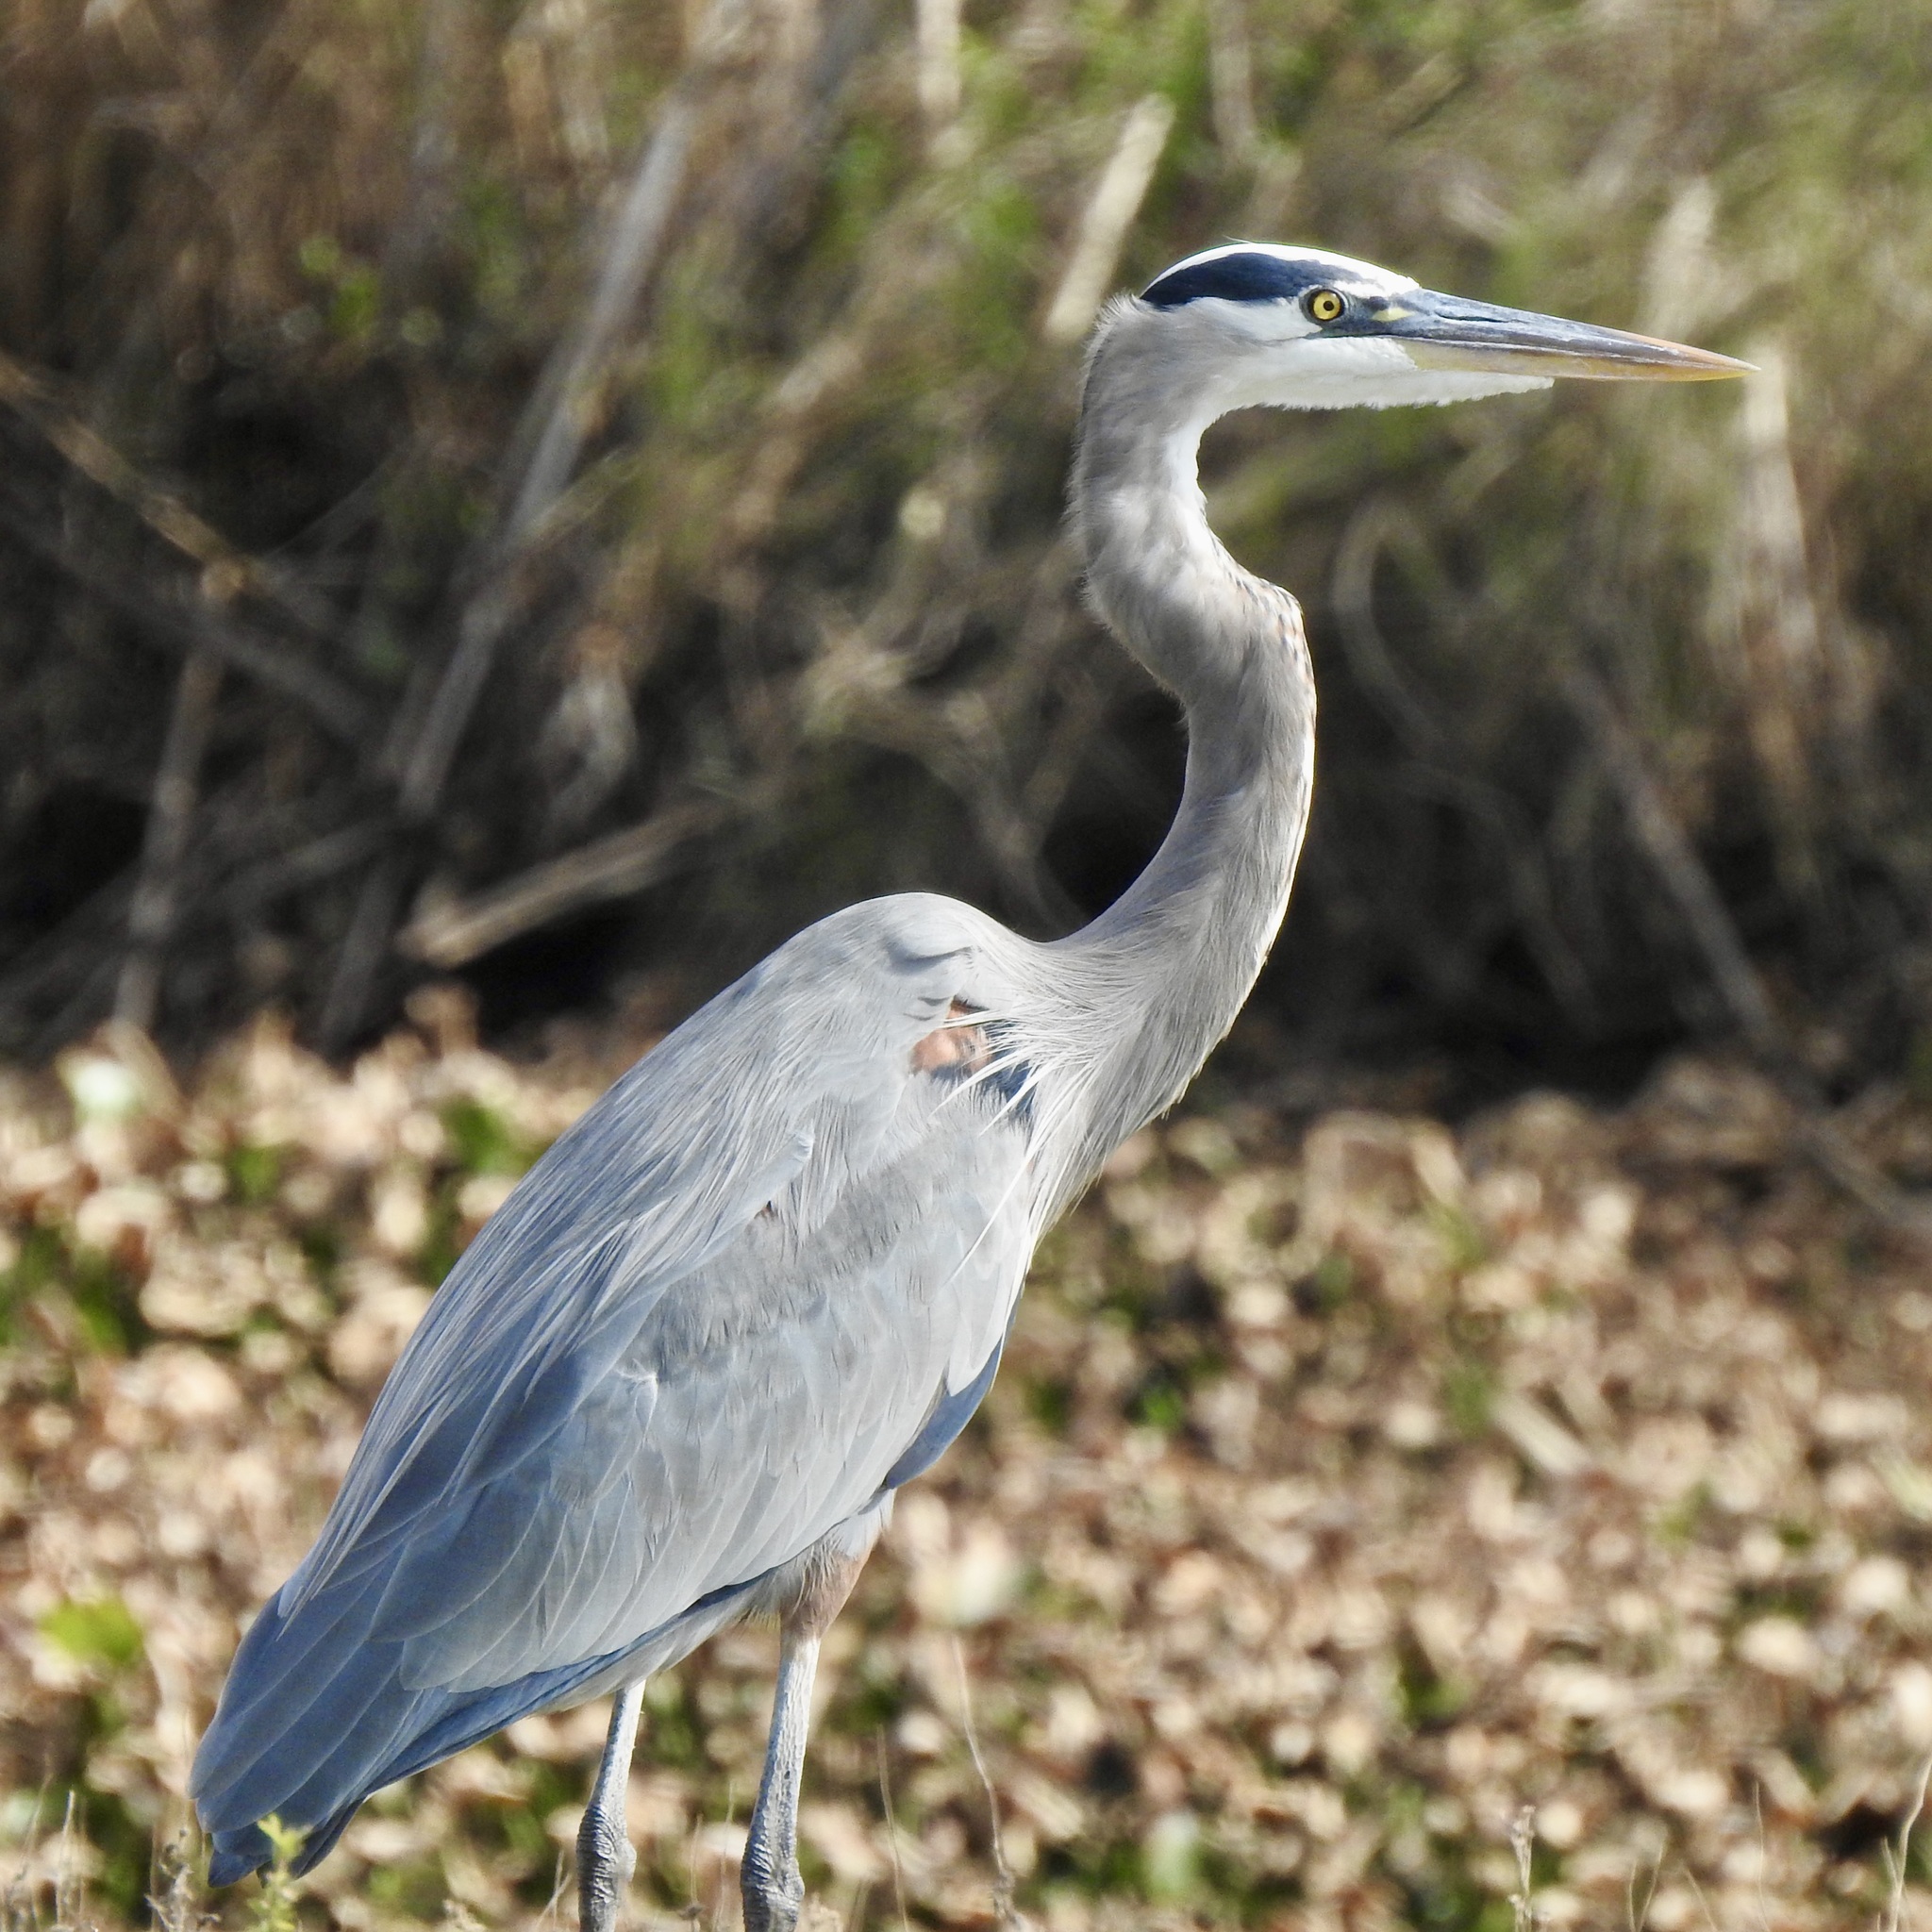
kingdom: Animalia
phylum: Chordata
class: Aves
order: Pelecaniformes
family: Ardeidae
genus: Ardea
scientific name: Ardea herodias
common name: Great blue heron
